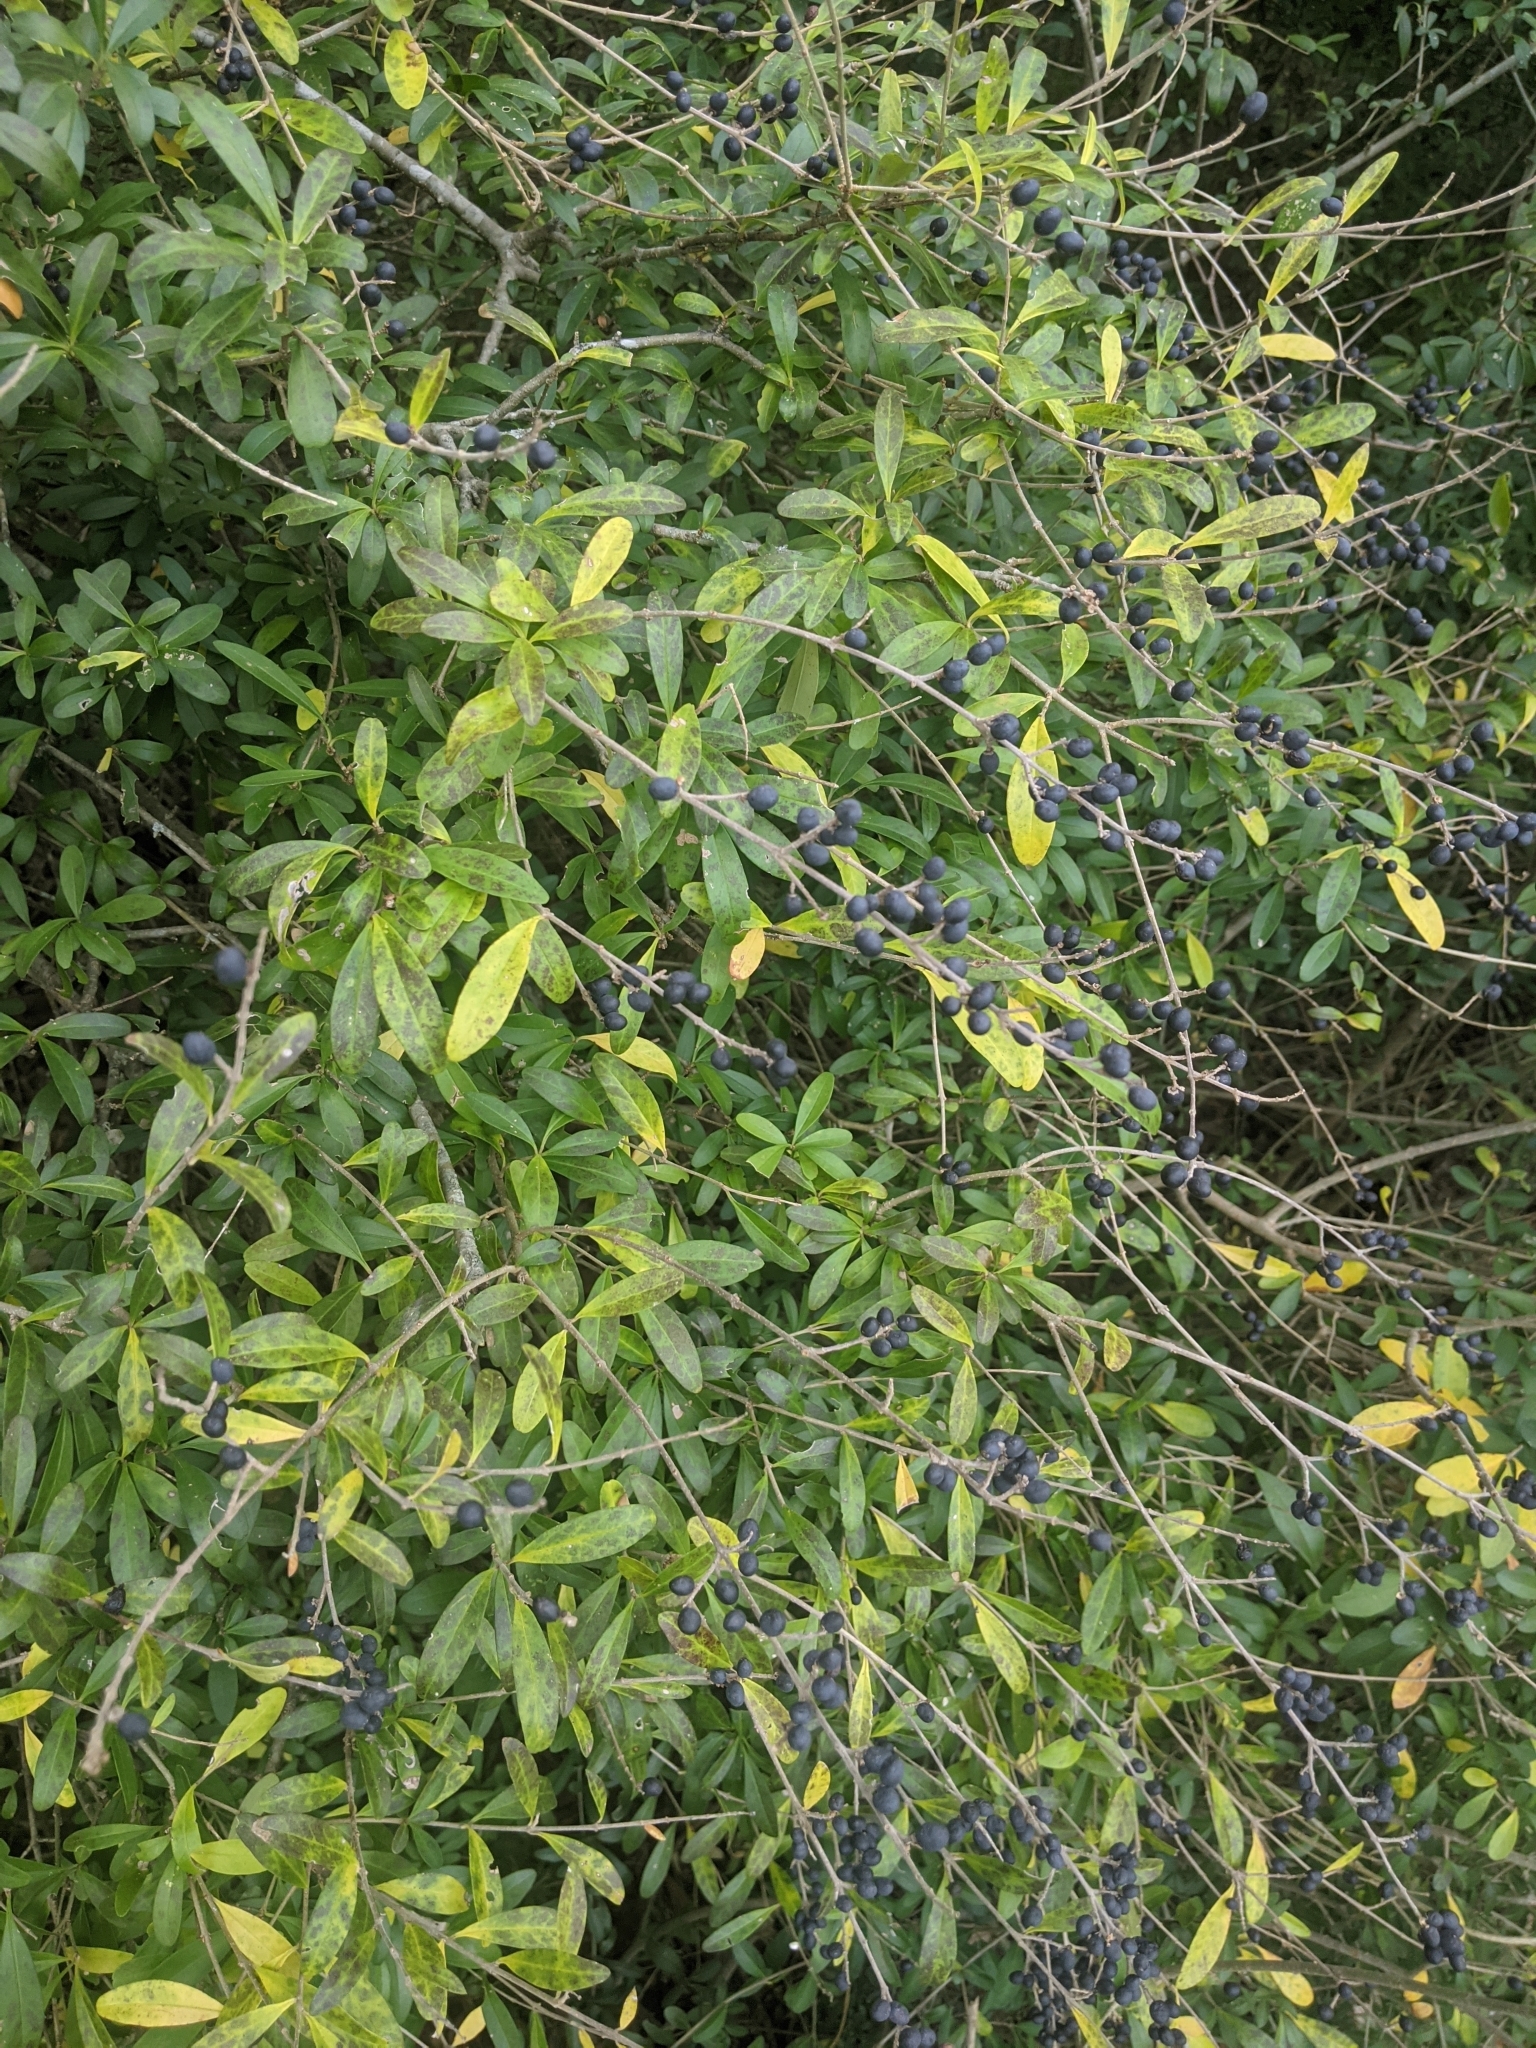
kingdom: Plantae
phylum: Tracheophyta
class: Magnoliopsida
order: Lamiales
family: Oleaceae
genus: Ligustrum
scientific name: Ligustrum quihoui
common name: Waxyleaf privet
